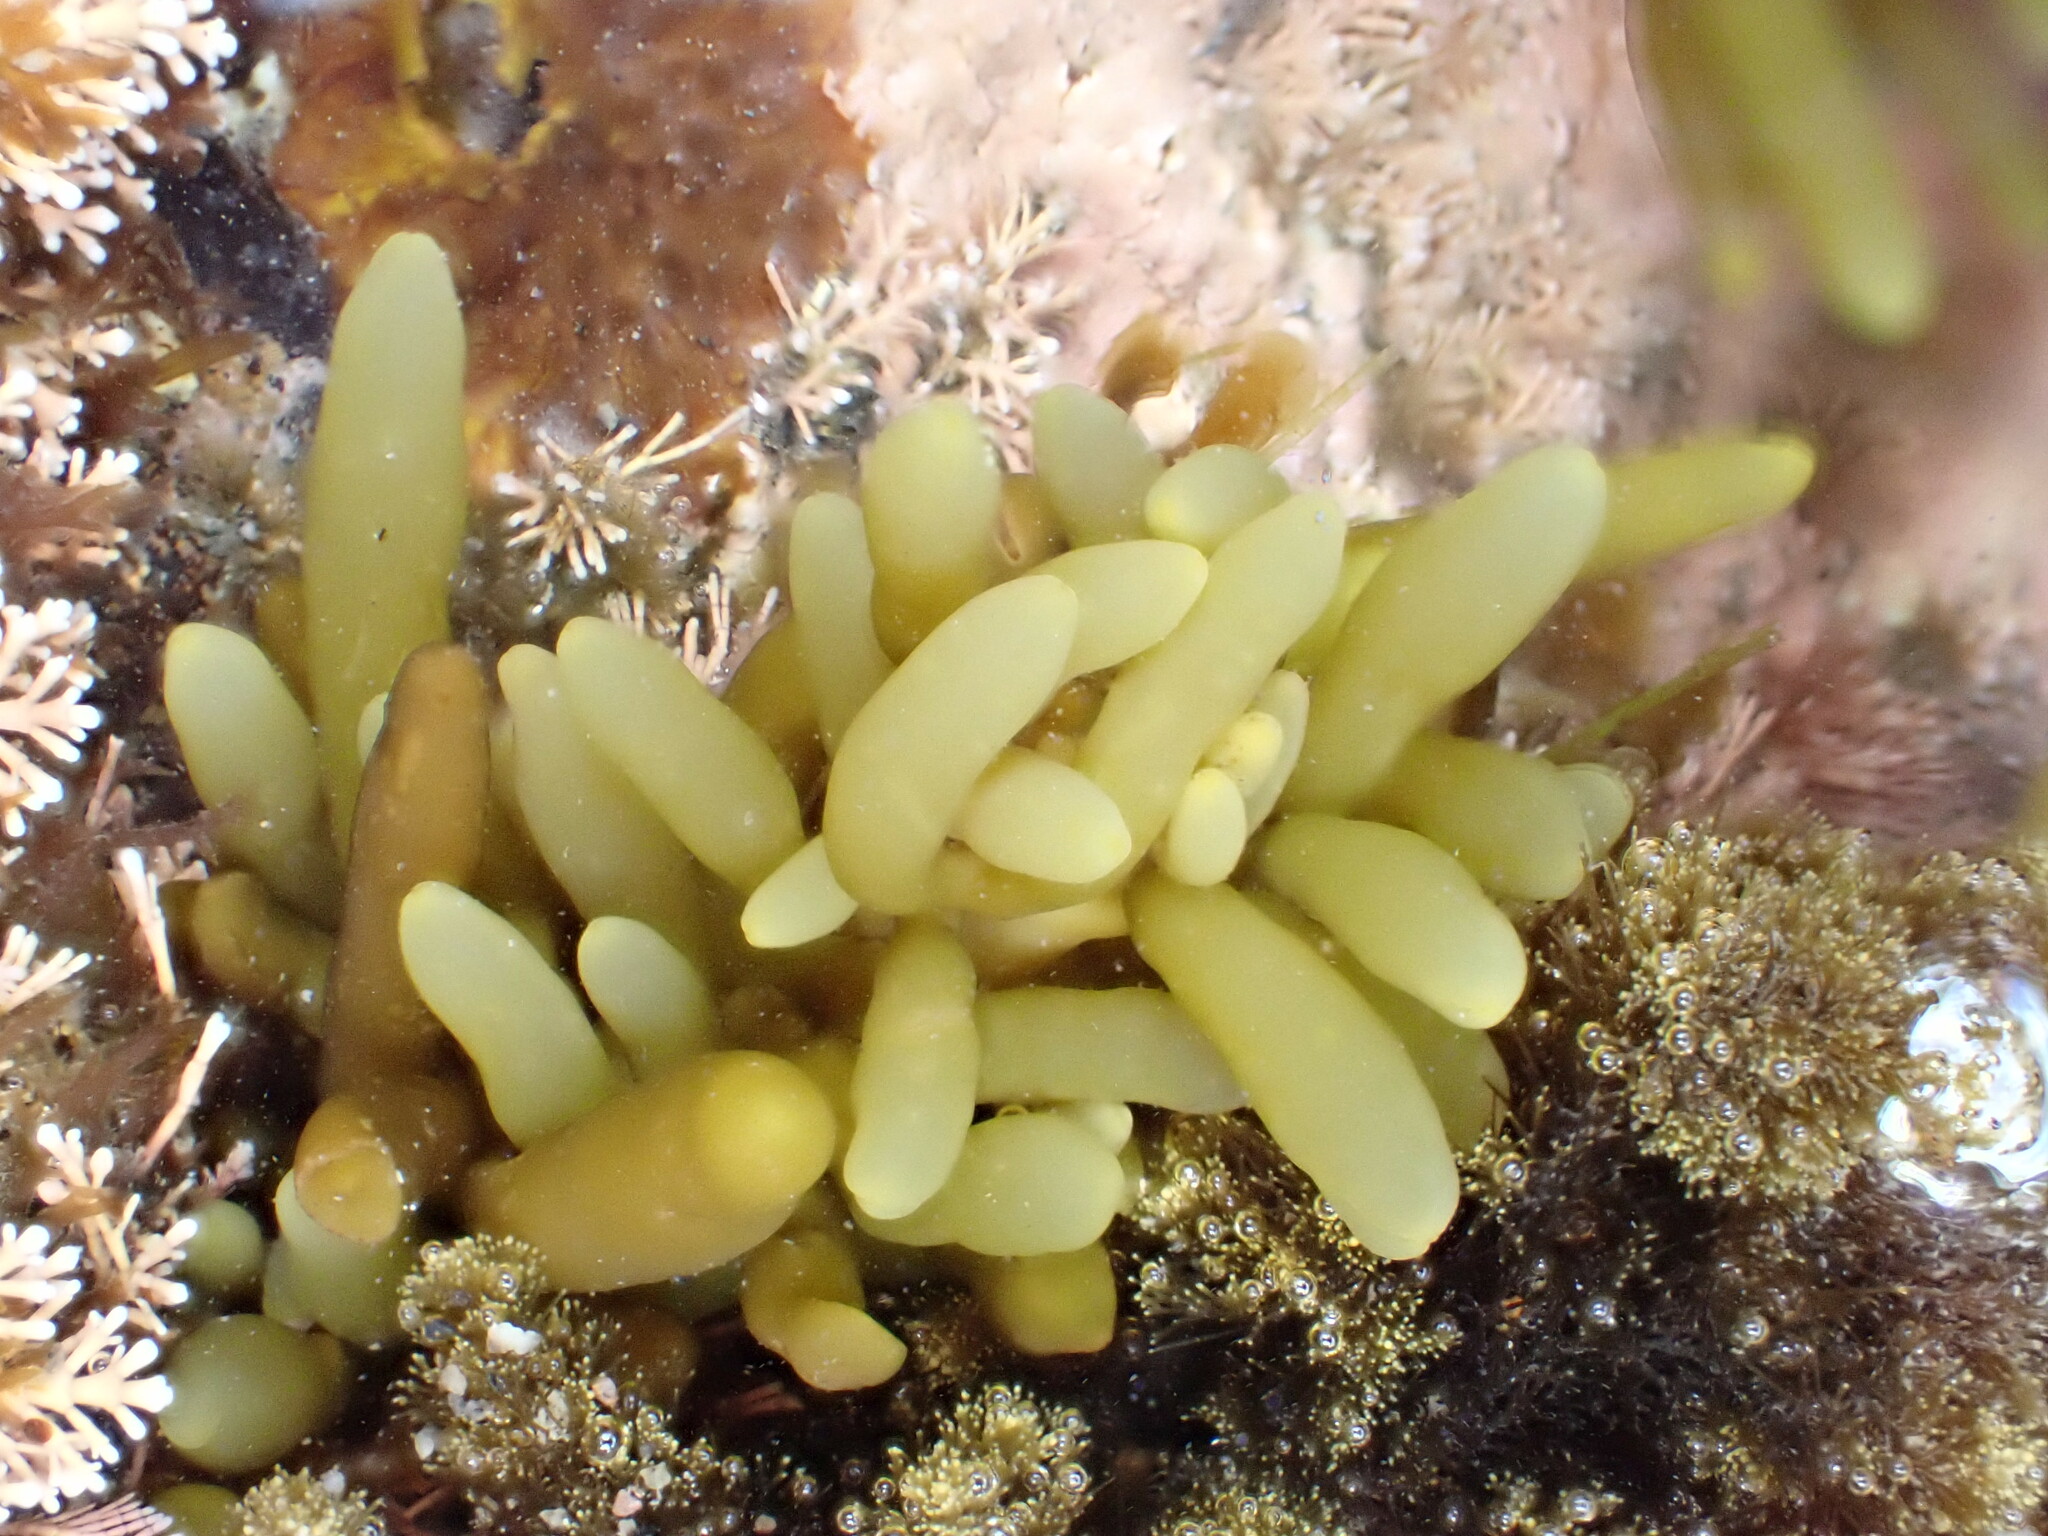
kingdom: Chromista
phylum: Ochrophyta
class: Phaeophyceae
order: Fucales
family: Sargassaceae
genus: Cystophora
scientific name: Cystophora torulosa
